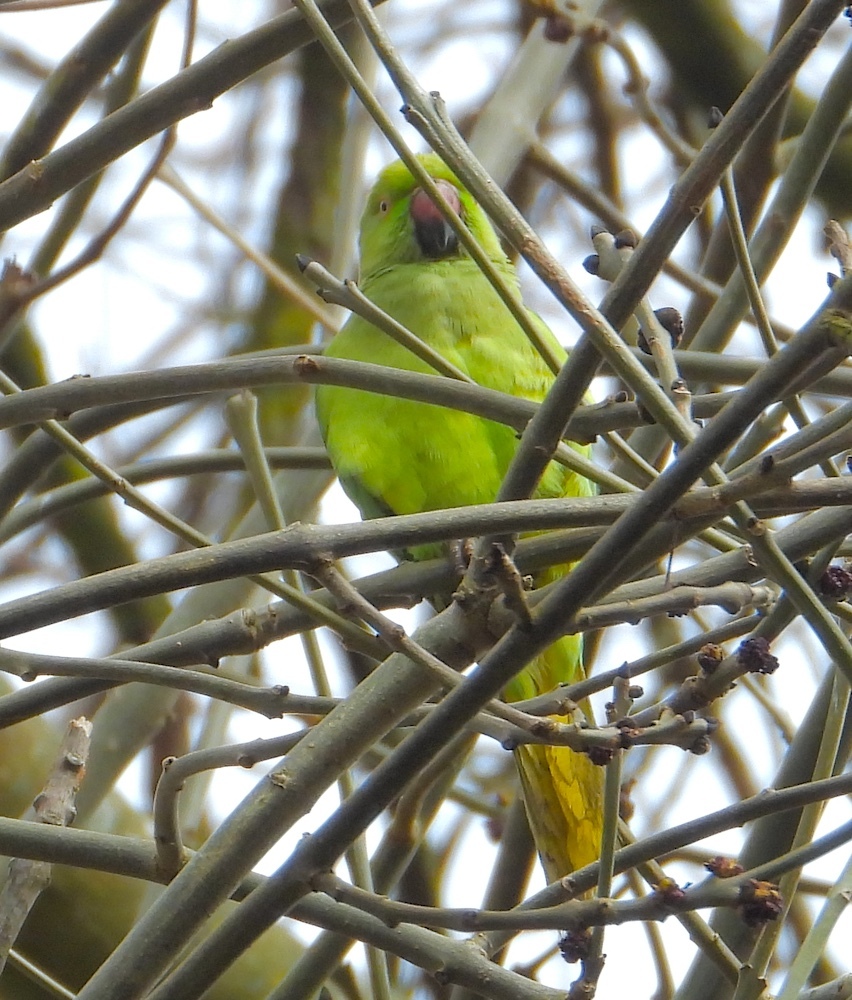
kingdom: Animalia
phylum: Chordata
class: Aves
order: Psittaciformes
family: Psittacidae
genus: Psittacula
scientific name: Psittacula krameri
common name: Rose-ringed parakeet
